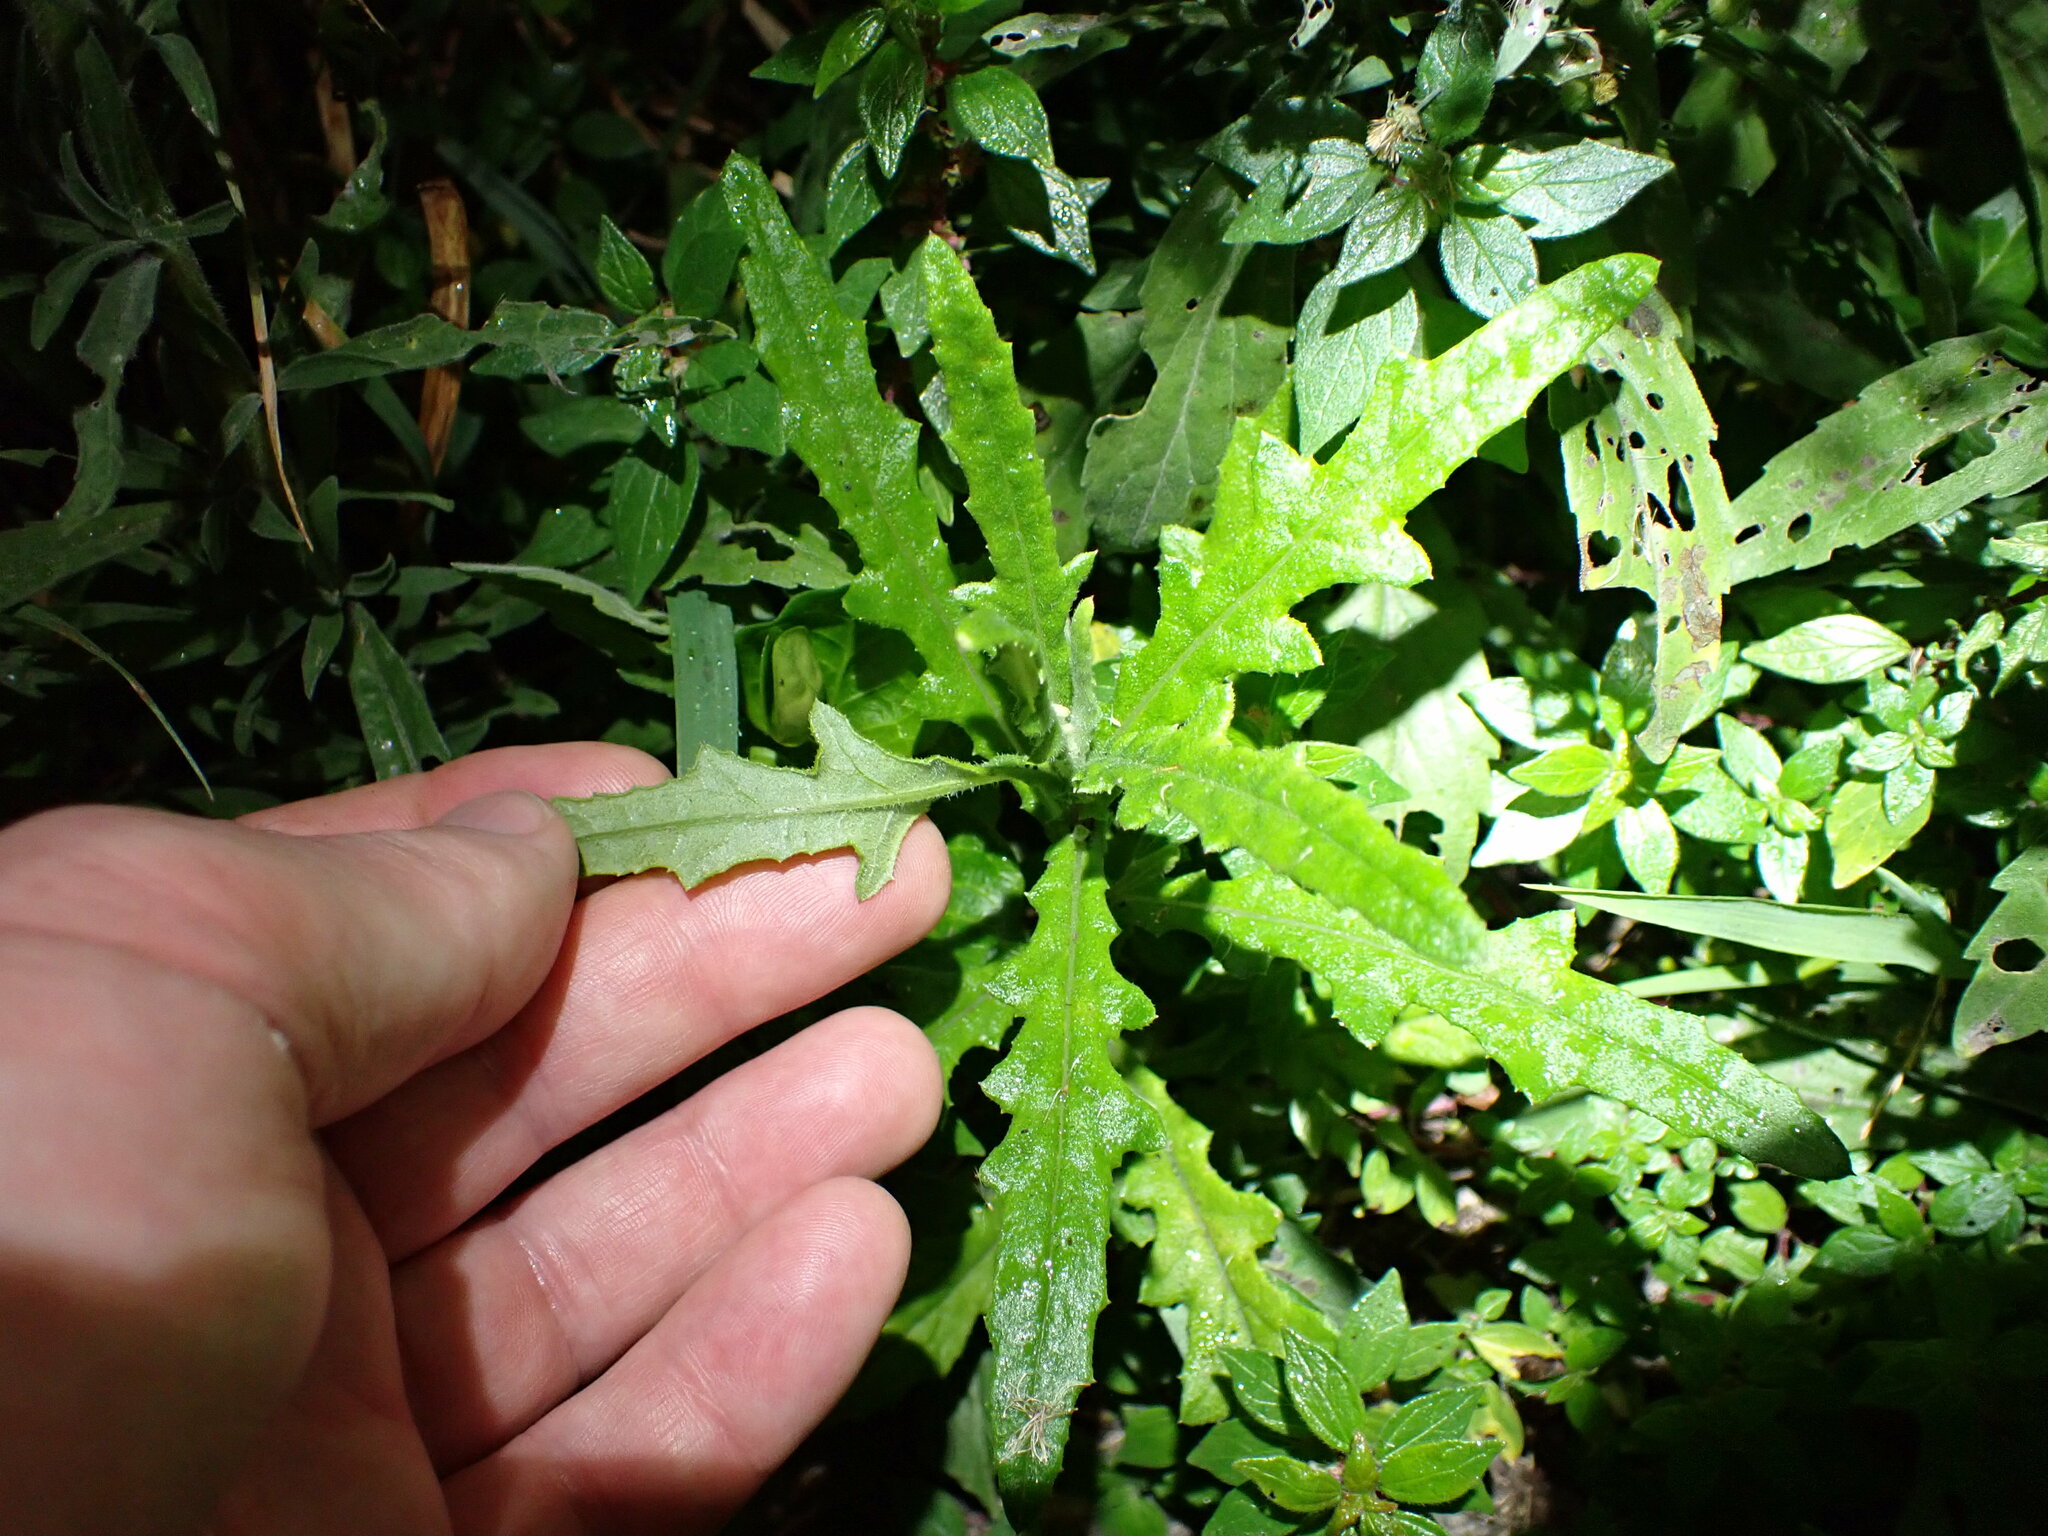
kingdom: Plantae
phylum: Tracheophyta
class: Magnoliopsida
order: Asterales
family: Asteraceae
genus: Senecio
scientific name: Senecio hispidulus
